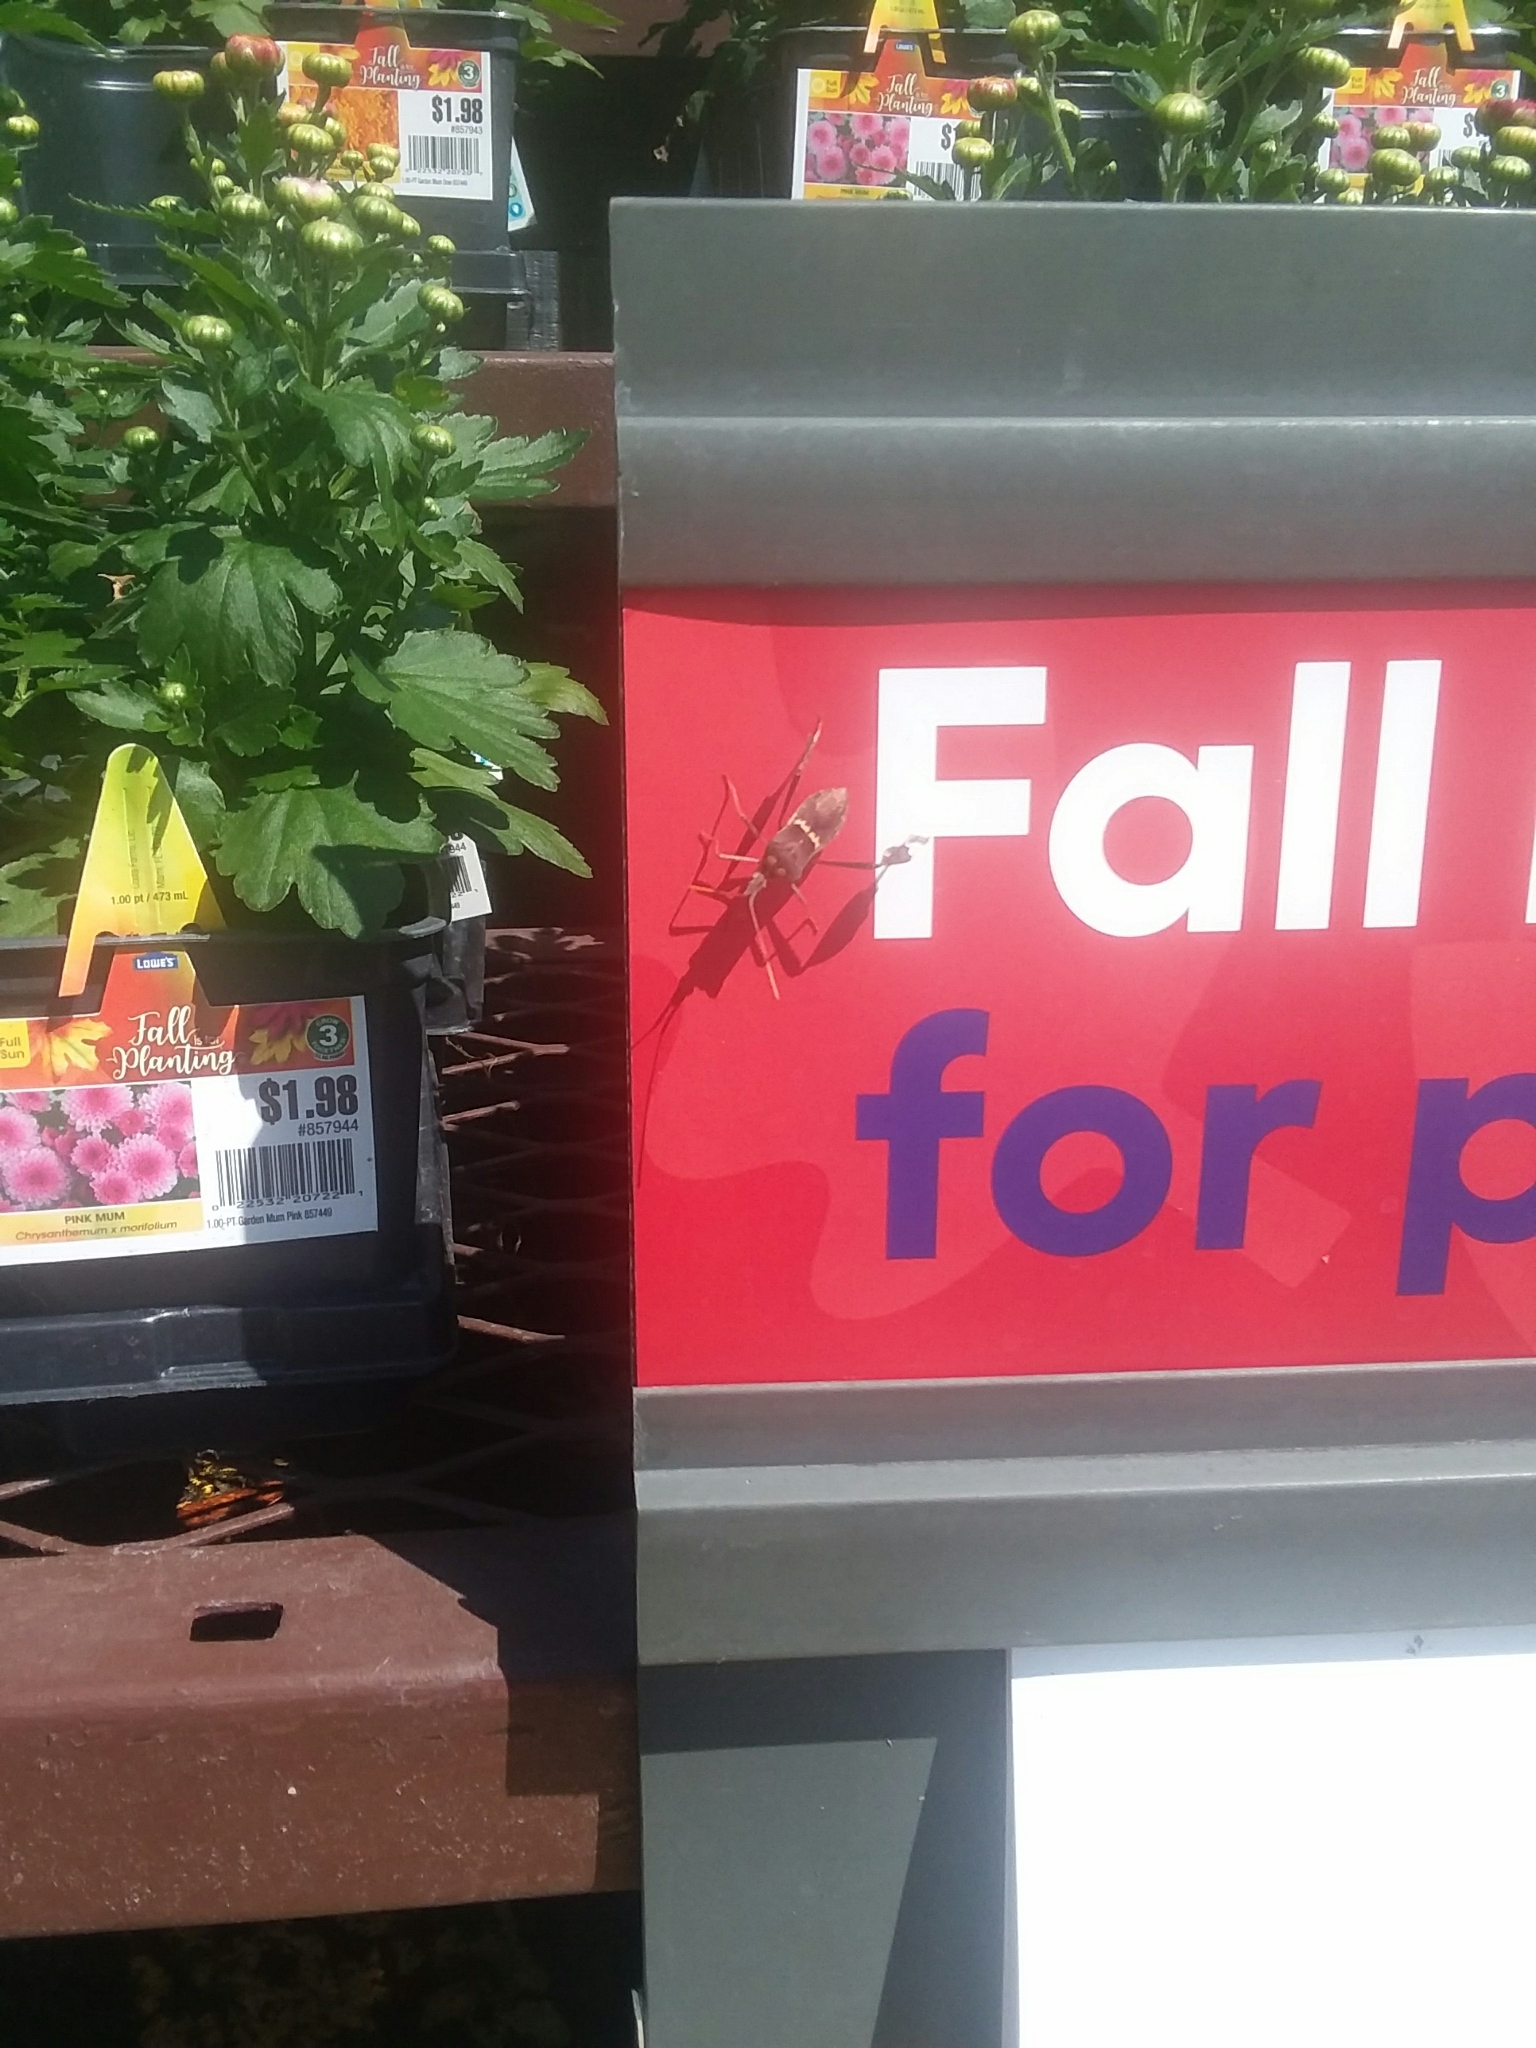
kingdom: Animalia
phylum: Arthropoda
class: Insecta
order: Hemiptera
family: Coreidae
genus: Leptoglossus
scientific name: Leptoglossus zonatus
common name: Large-legged bug
